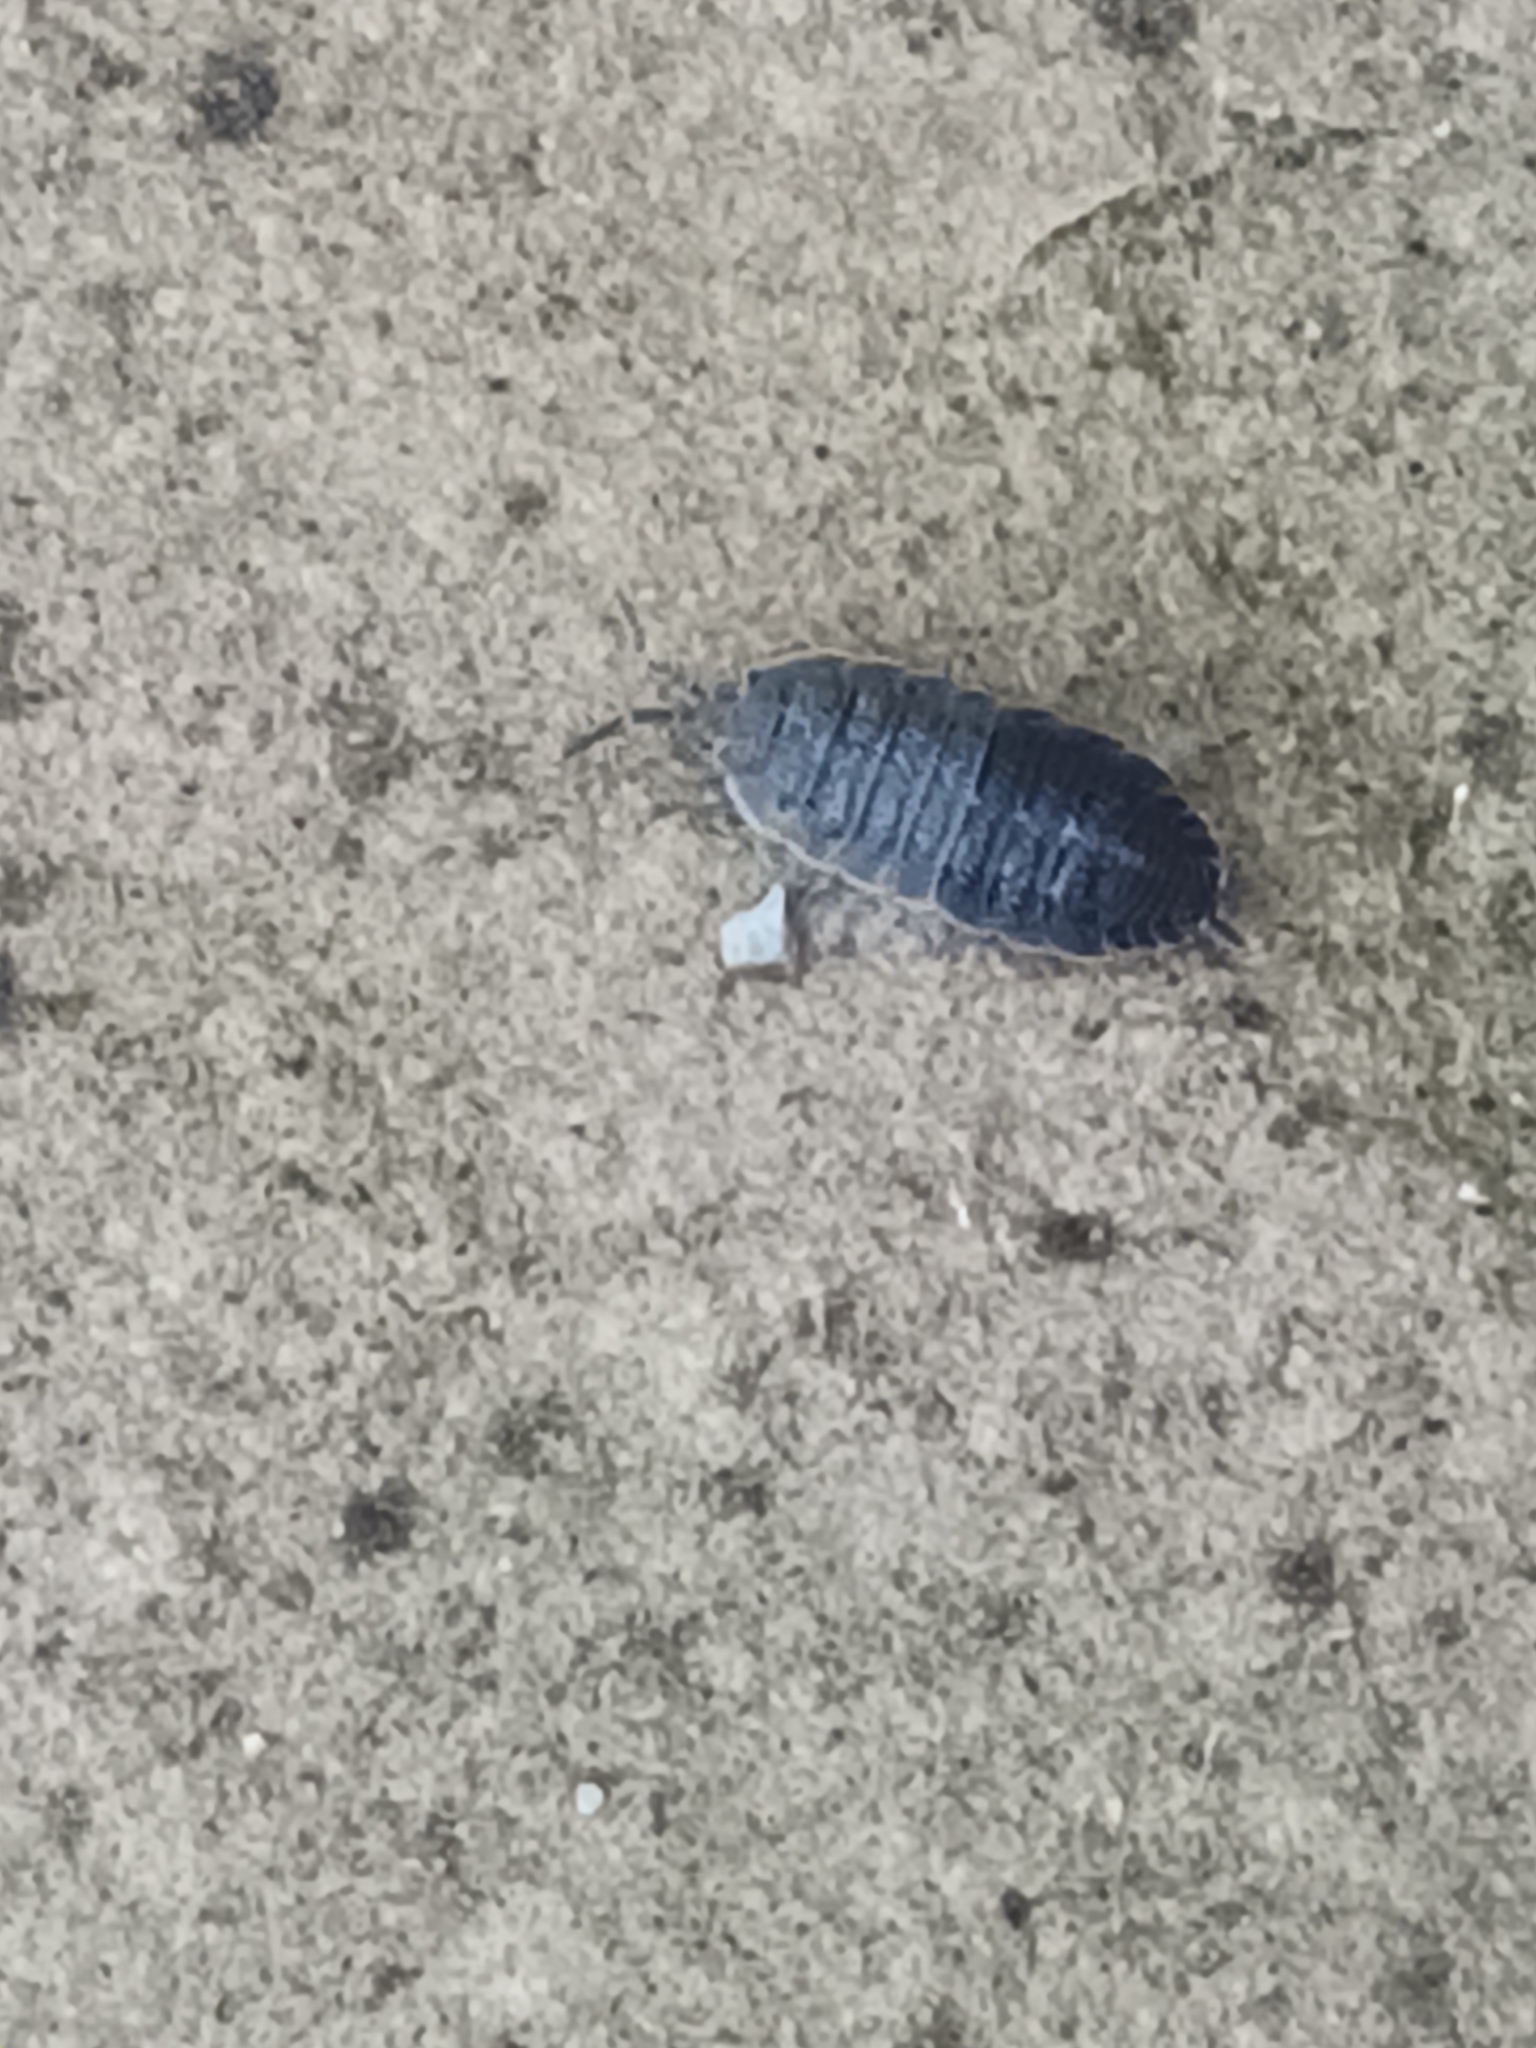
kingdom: Animalia
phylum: Arthropoda
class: Malacostraca
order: Isopoda
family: Porcellionidae
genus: Porcellio
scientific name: Porcellio scaber
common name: Common rough woodlouse
